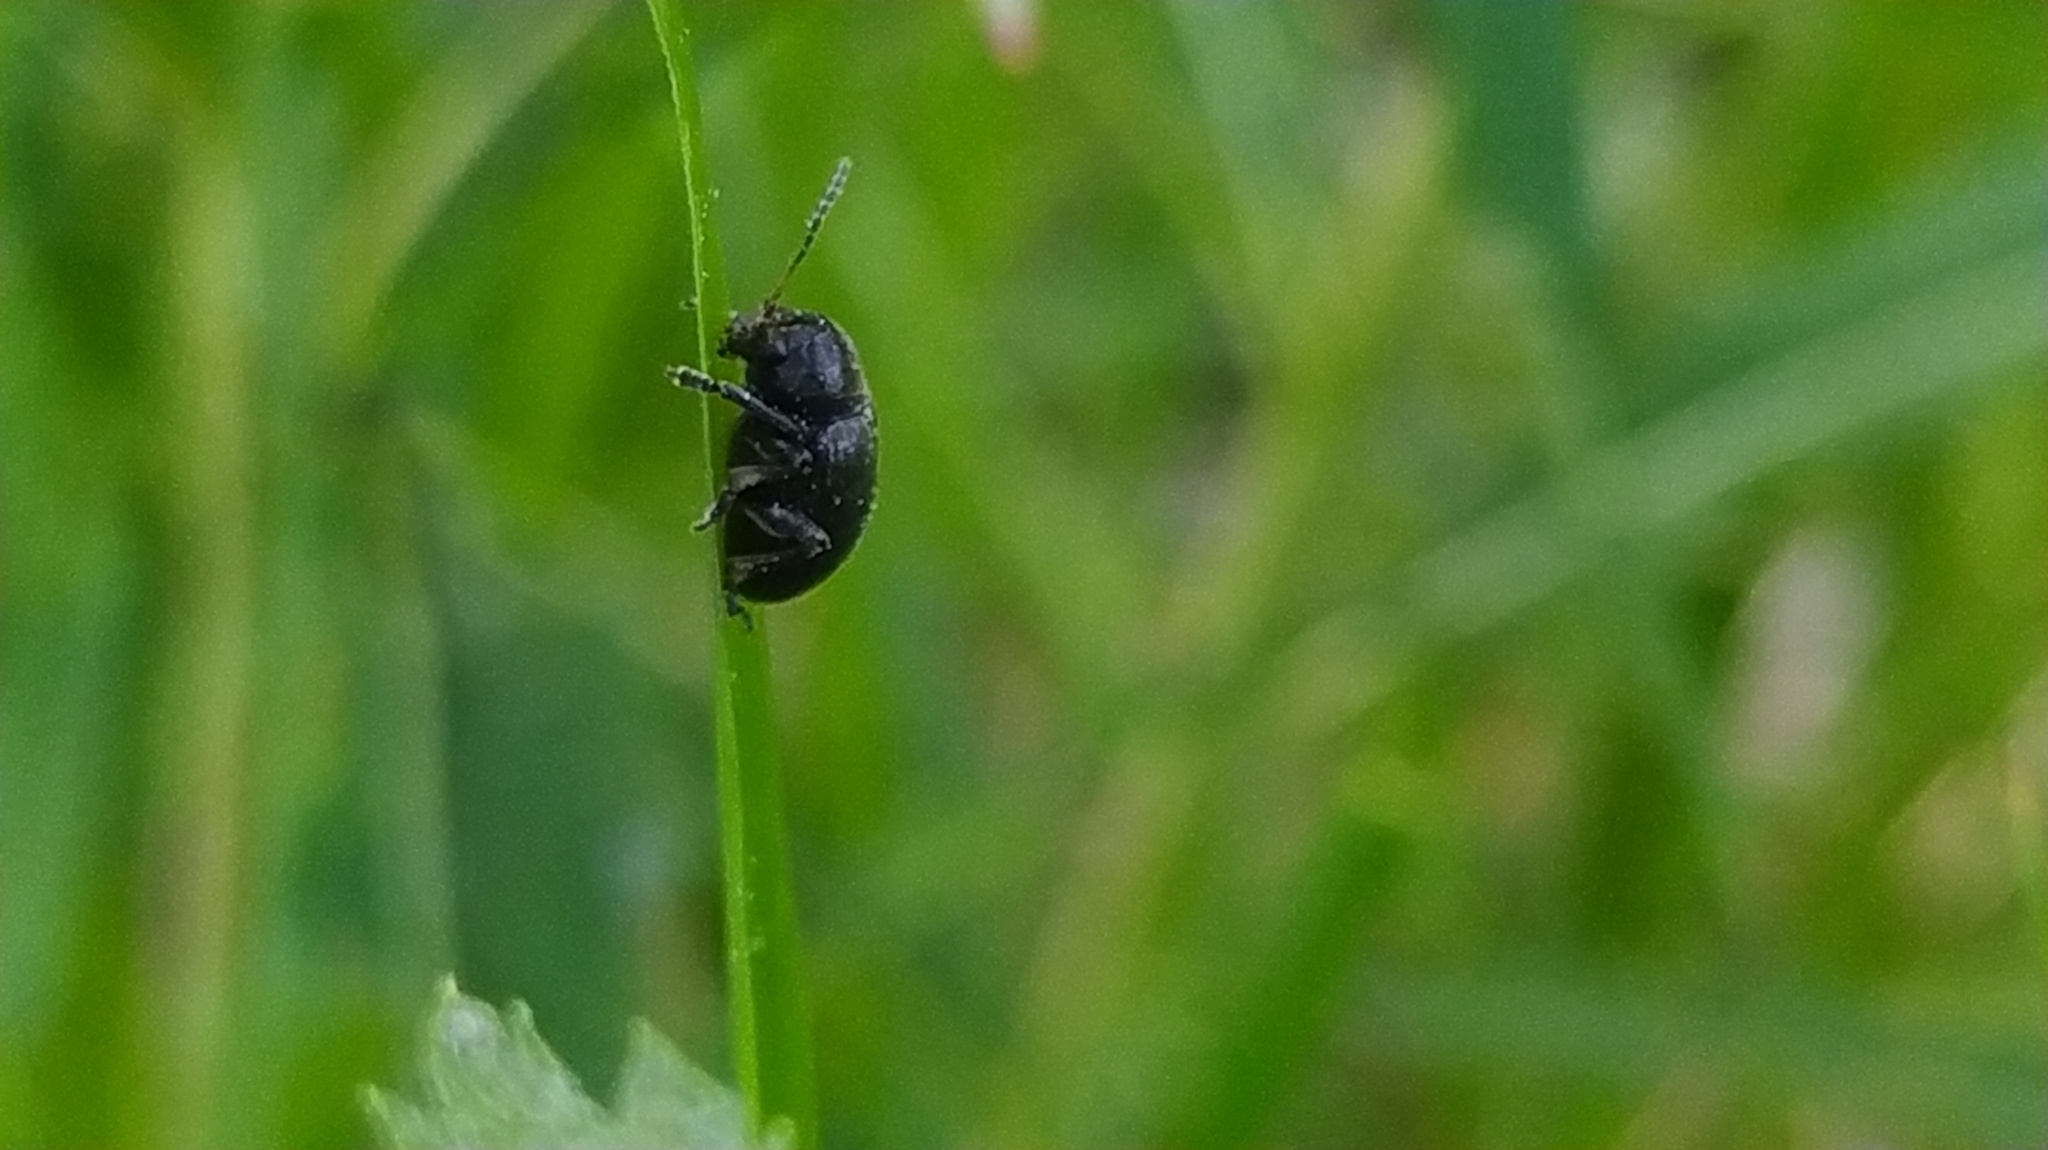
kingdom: Animalia
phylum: Arthropoda
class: Insecta
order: Coleoptera
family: Chrysomelidae
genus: Bromius
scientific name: Bromius obscurus
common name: Western grape rootworm
